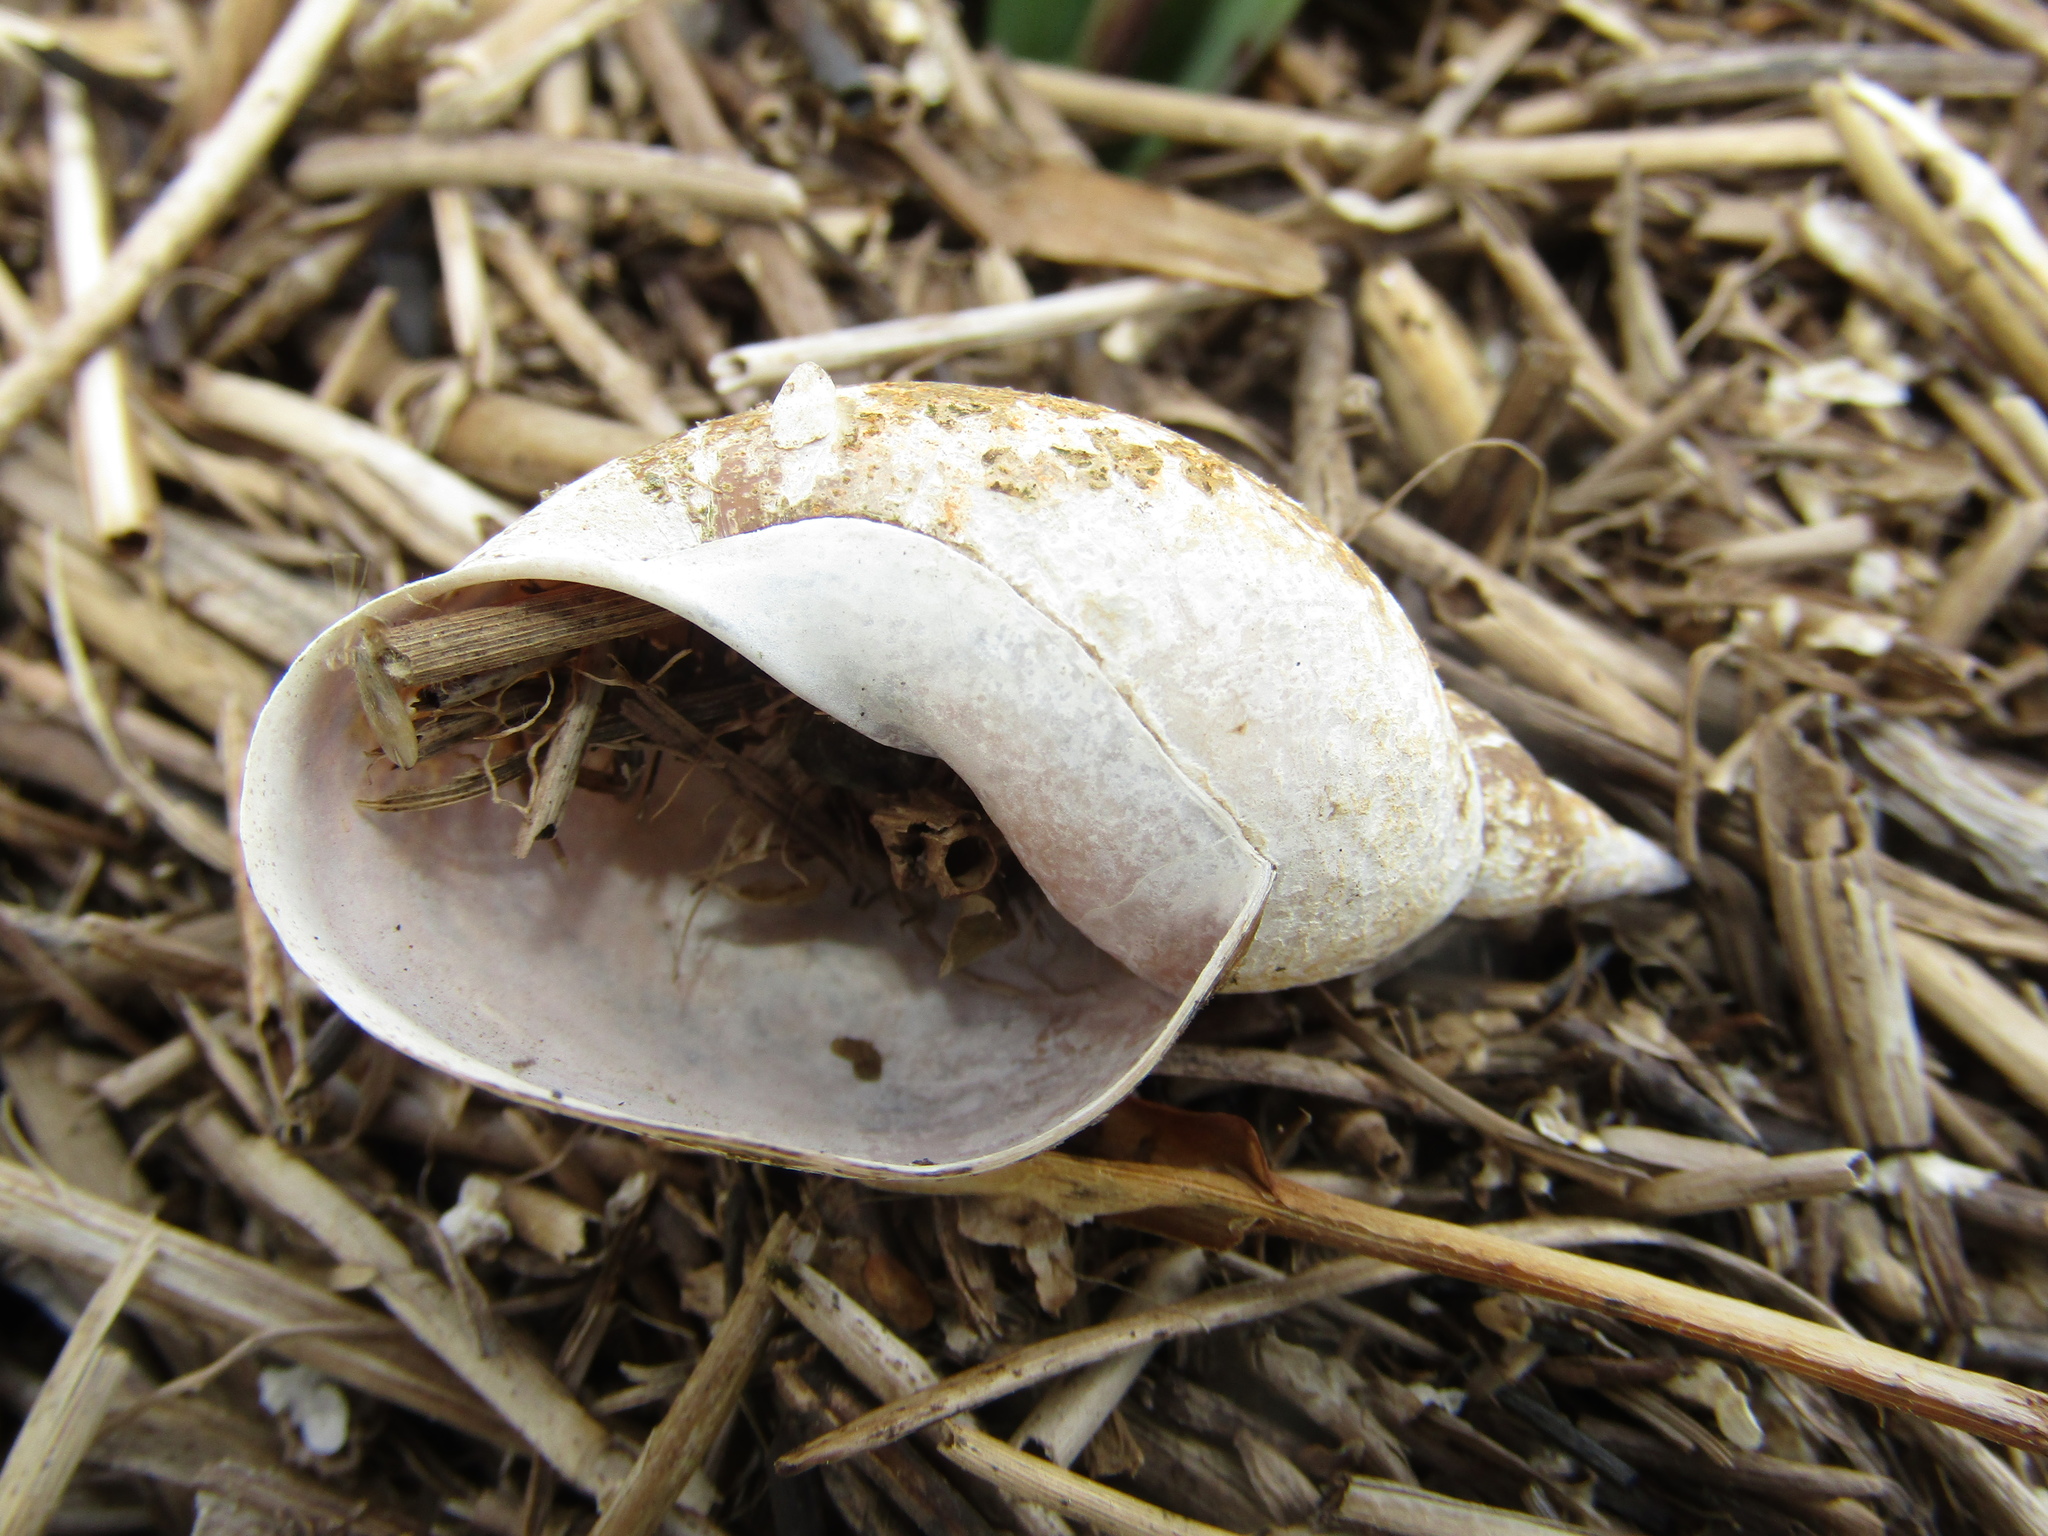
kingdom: Animalia
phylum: Mollusca
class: Gastropoda
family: Lymnaeidae
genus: Lymnaea
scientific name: Lymnaea stagnalis
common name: Great pond snail
